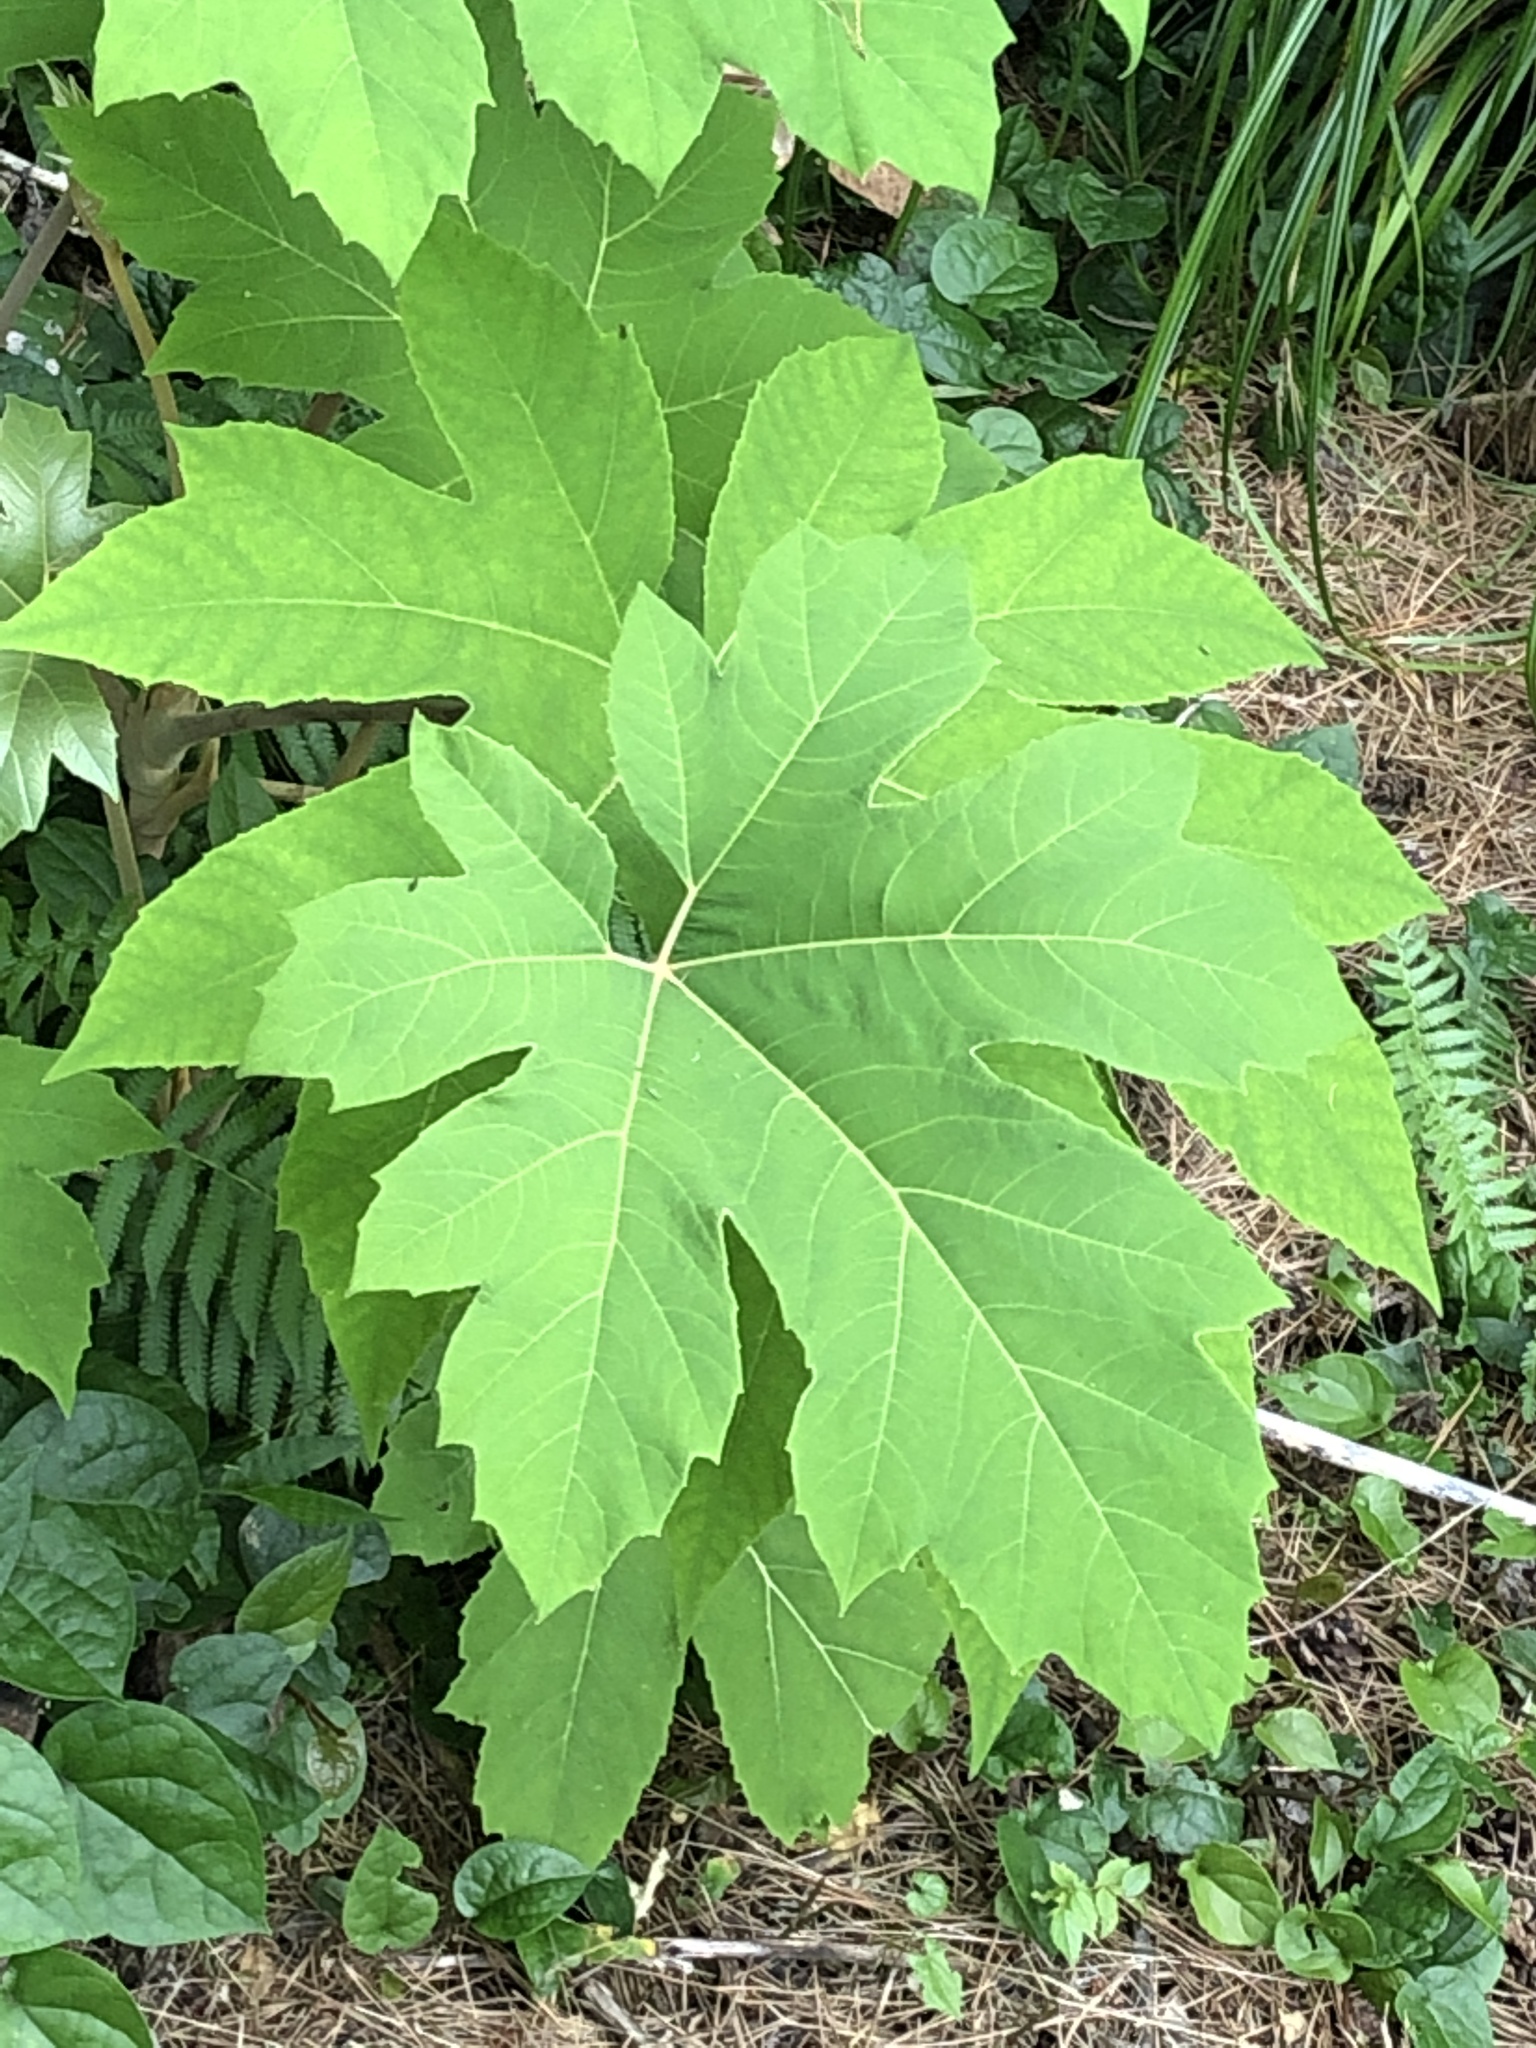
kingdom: Plantae
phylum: Tracheophyta
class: Magnoliopsida
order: Apiales
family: Araliaceae
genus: Tetrapanax
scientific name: Tetrapanax papyrifer
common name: Rice-paper plant
